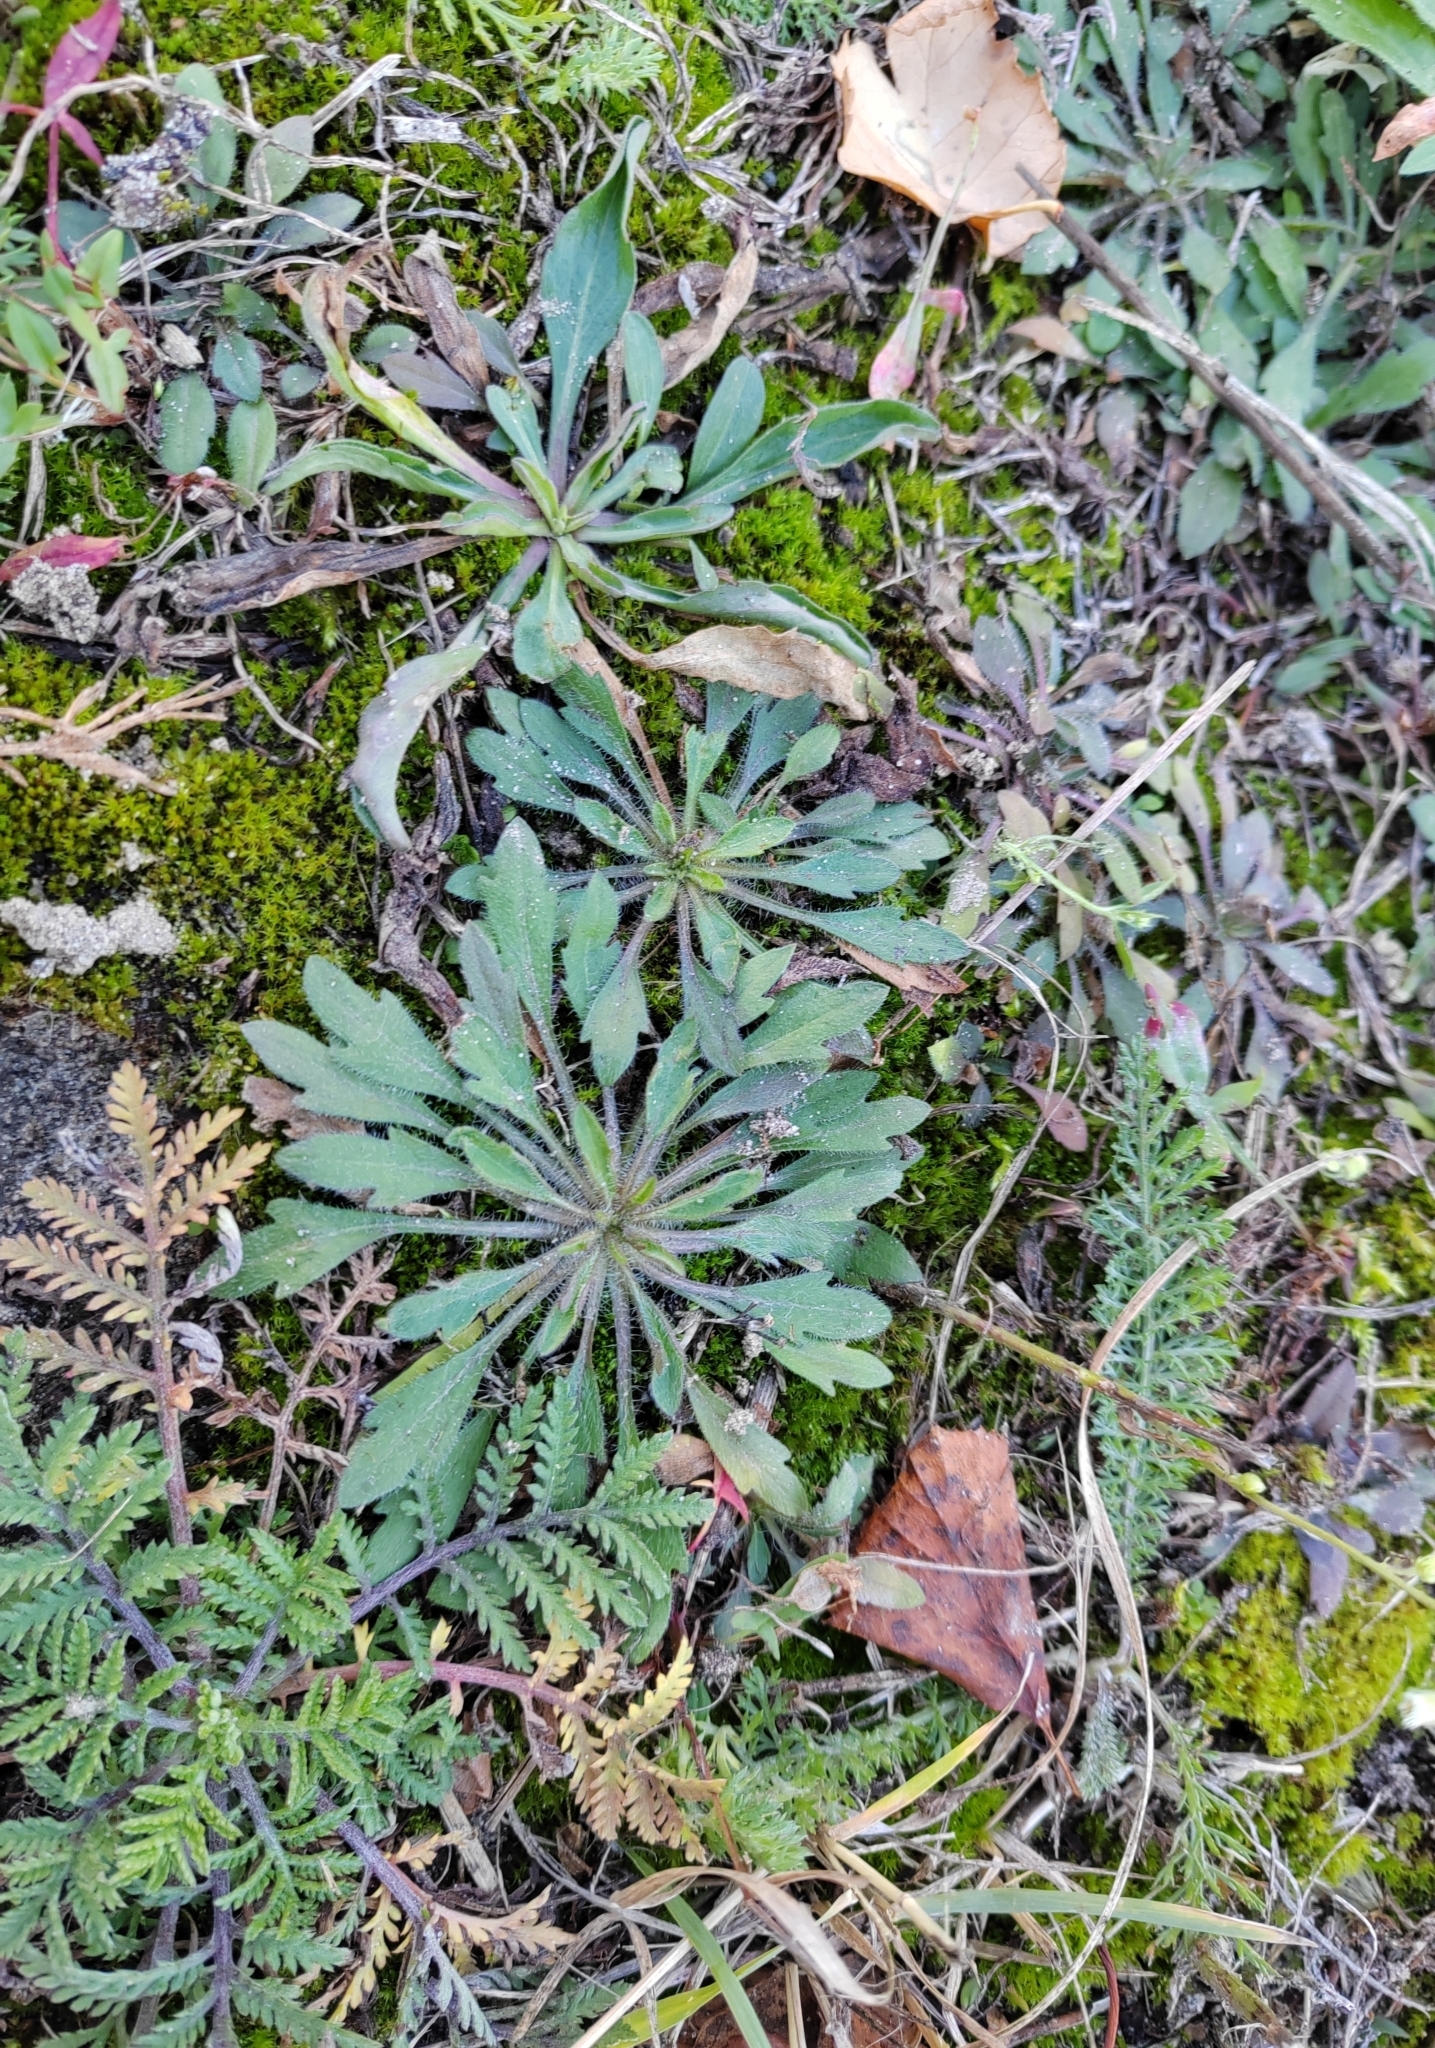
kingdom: Plantae
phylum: Tracheophyta
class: Magnoliopsida
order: Asterales
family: Asteraceae
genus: Erigeron
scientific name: Erigeron canadensis
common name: Canadian fleabane
